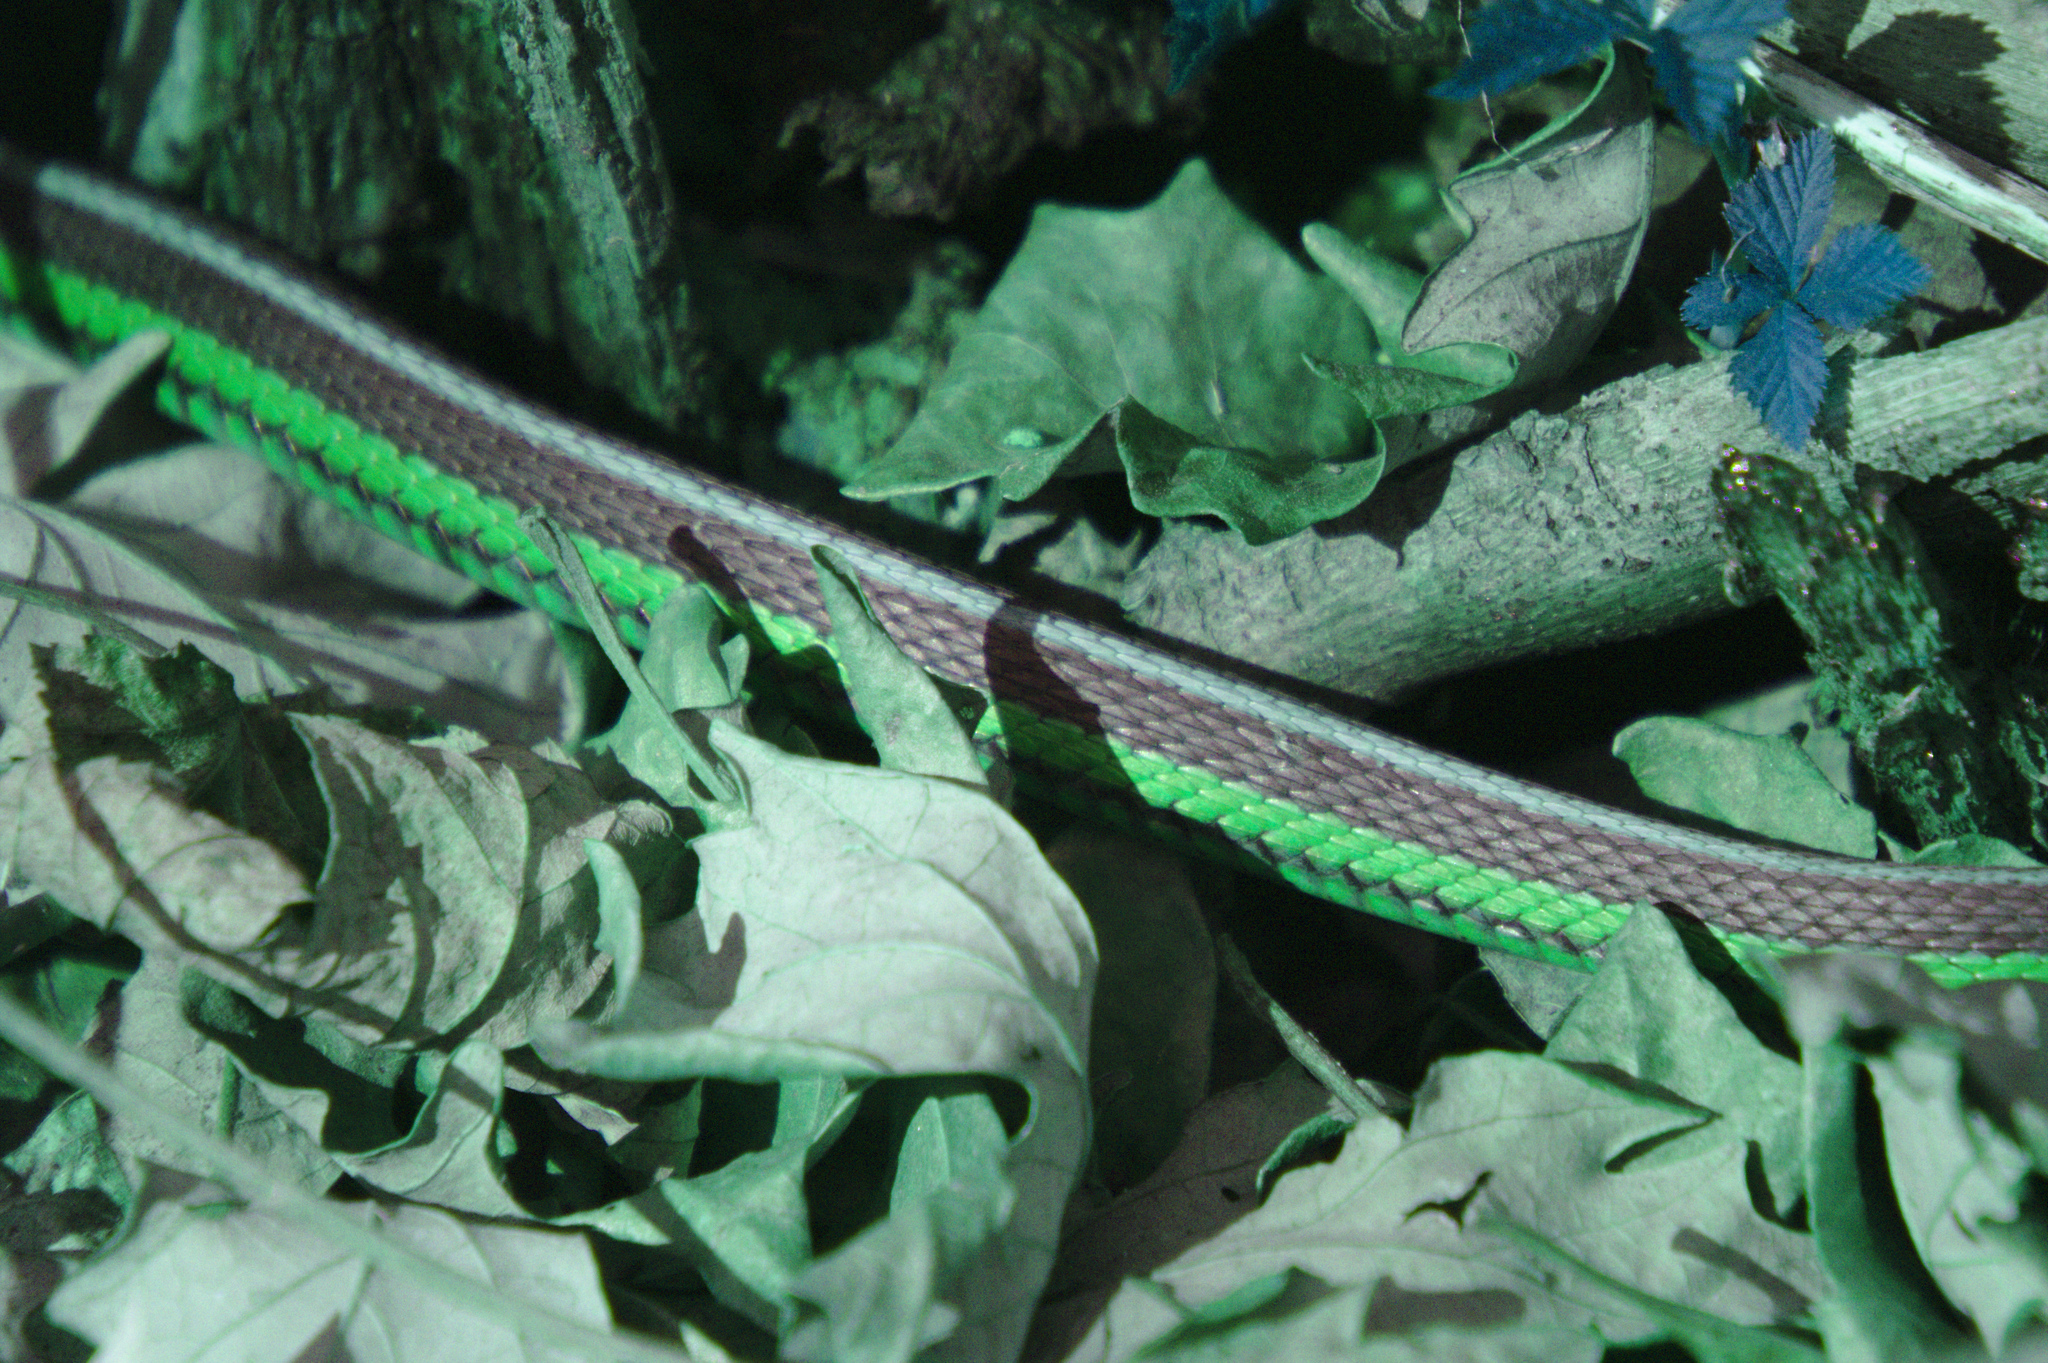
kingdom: Animalia
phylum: Chordata
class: Squamata
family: Colubridae
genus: Thamnophis
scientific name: Thamnophis sirtalis
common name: Common garter snake
